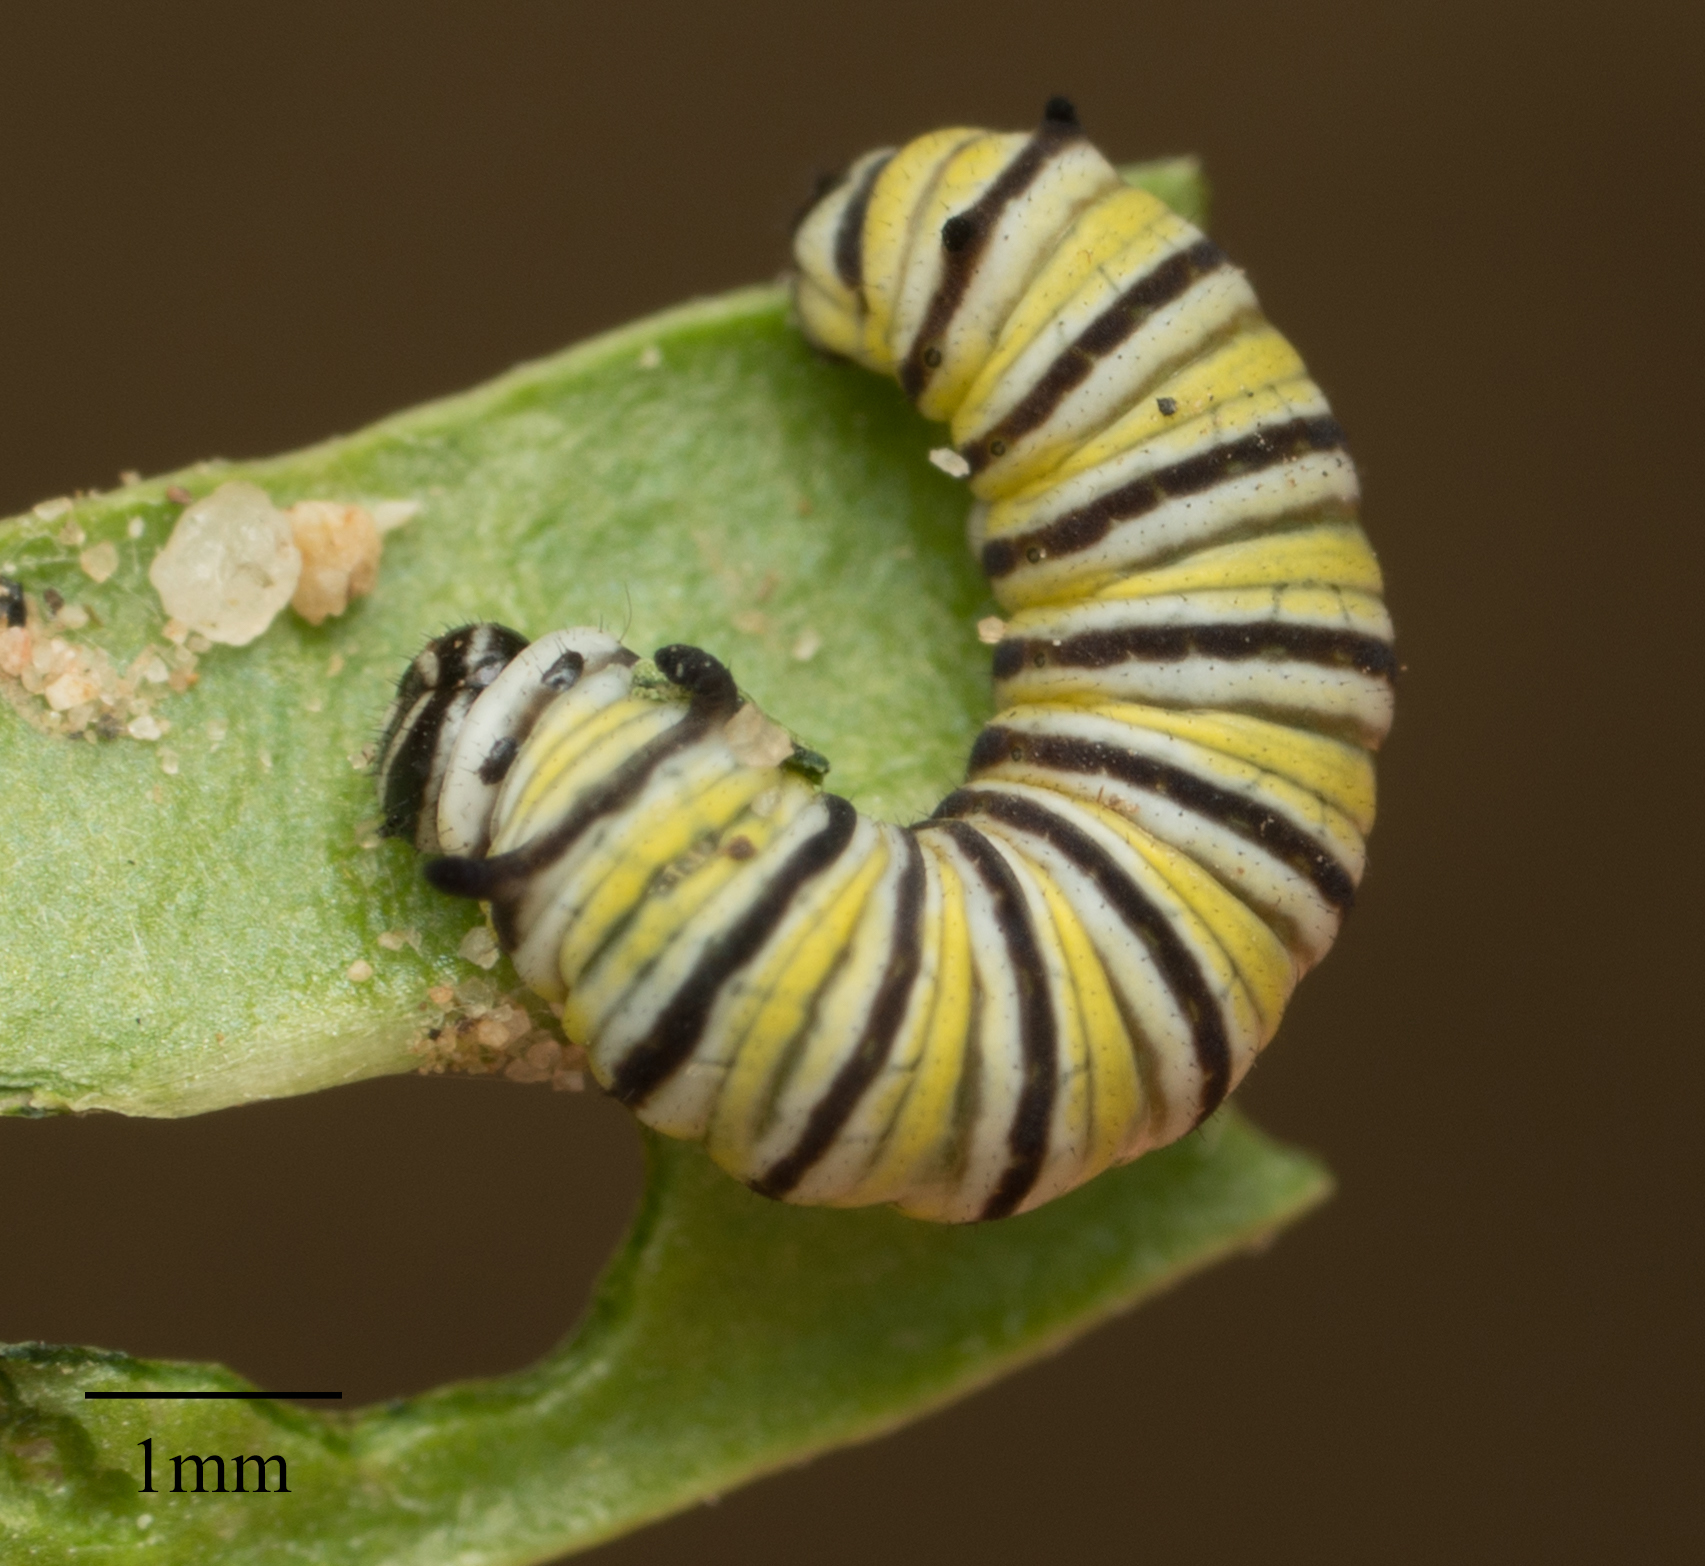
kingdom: Animalia
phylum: Arthropoda
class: Insecta
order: Lepidoptera
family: Nymphalidae
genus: Danaus
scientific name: Danaus plexippus
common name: Monarch
